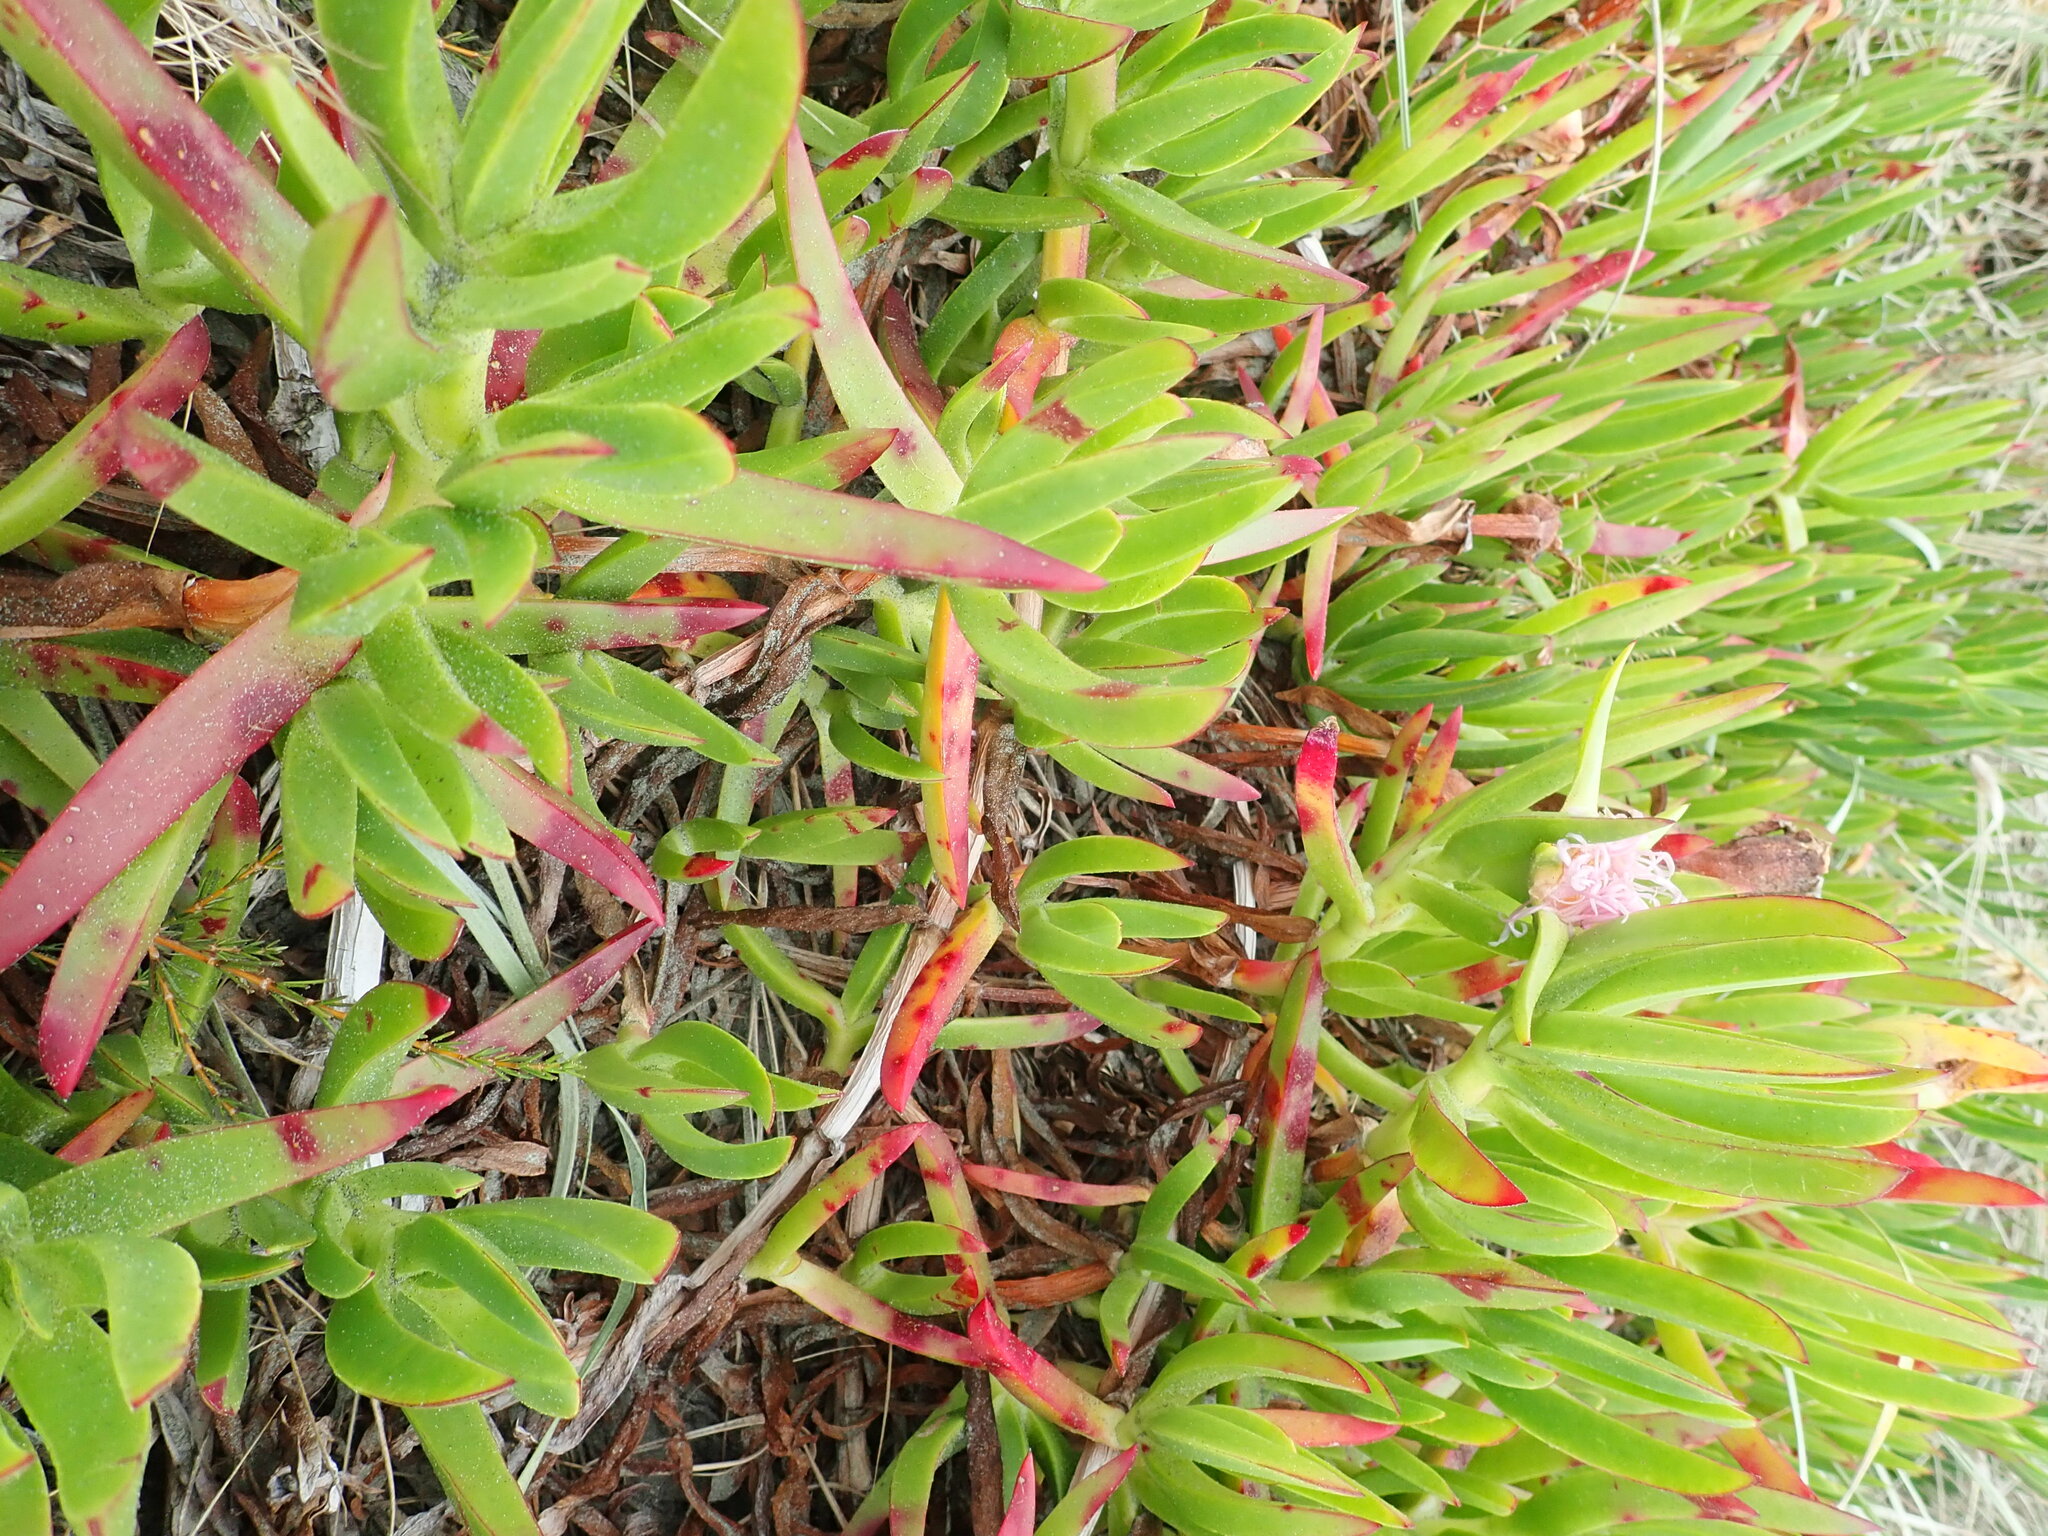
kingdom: Plantae
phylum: Tracheophyta
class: Magnoliopsida
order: Caryophyllales
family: Aizoaceae
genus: Carpobrotus
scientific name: Carpobrotus edulis
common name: Hottentot-fig
